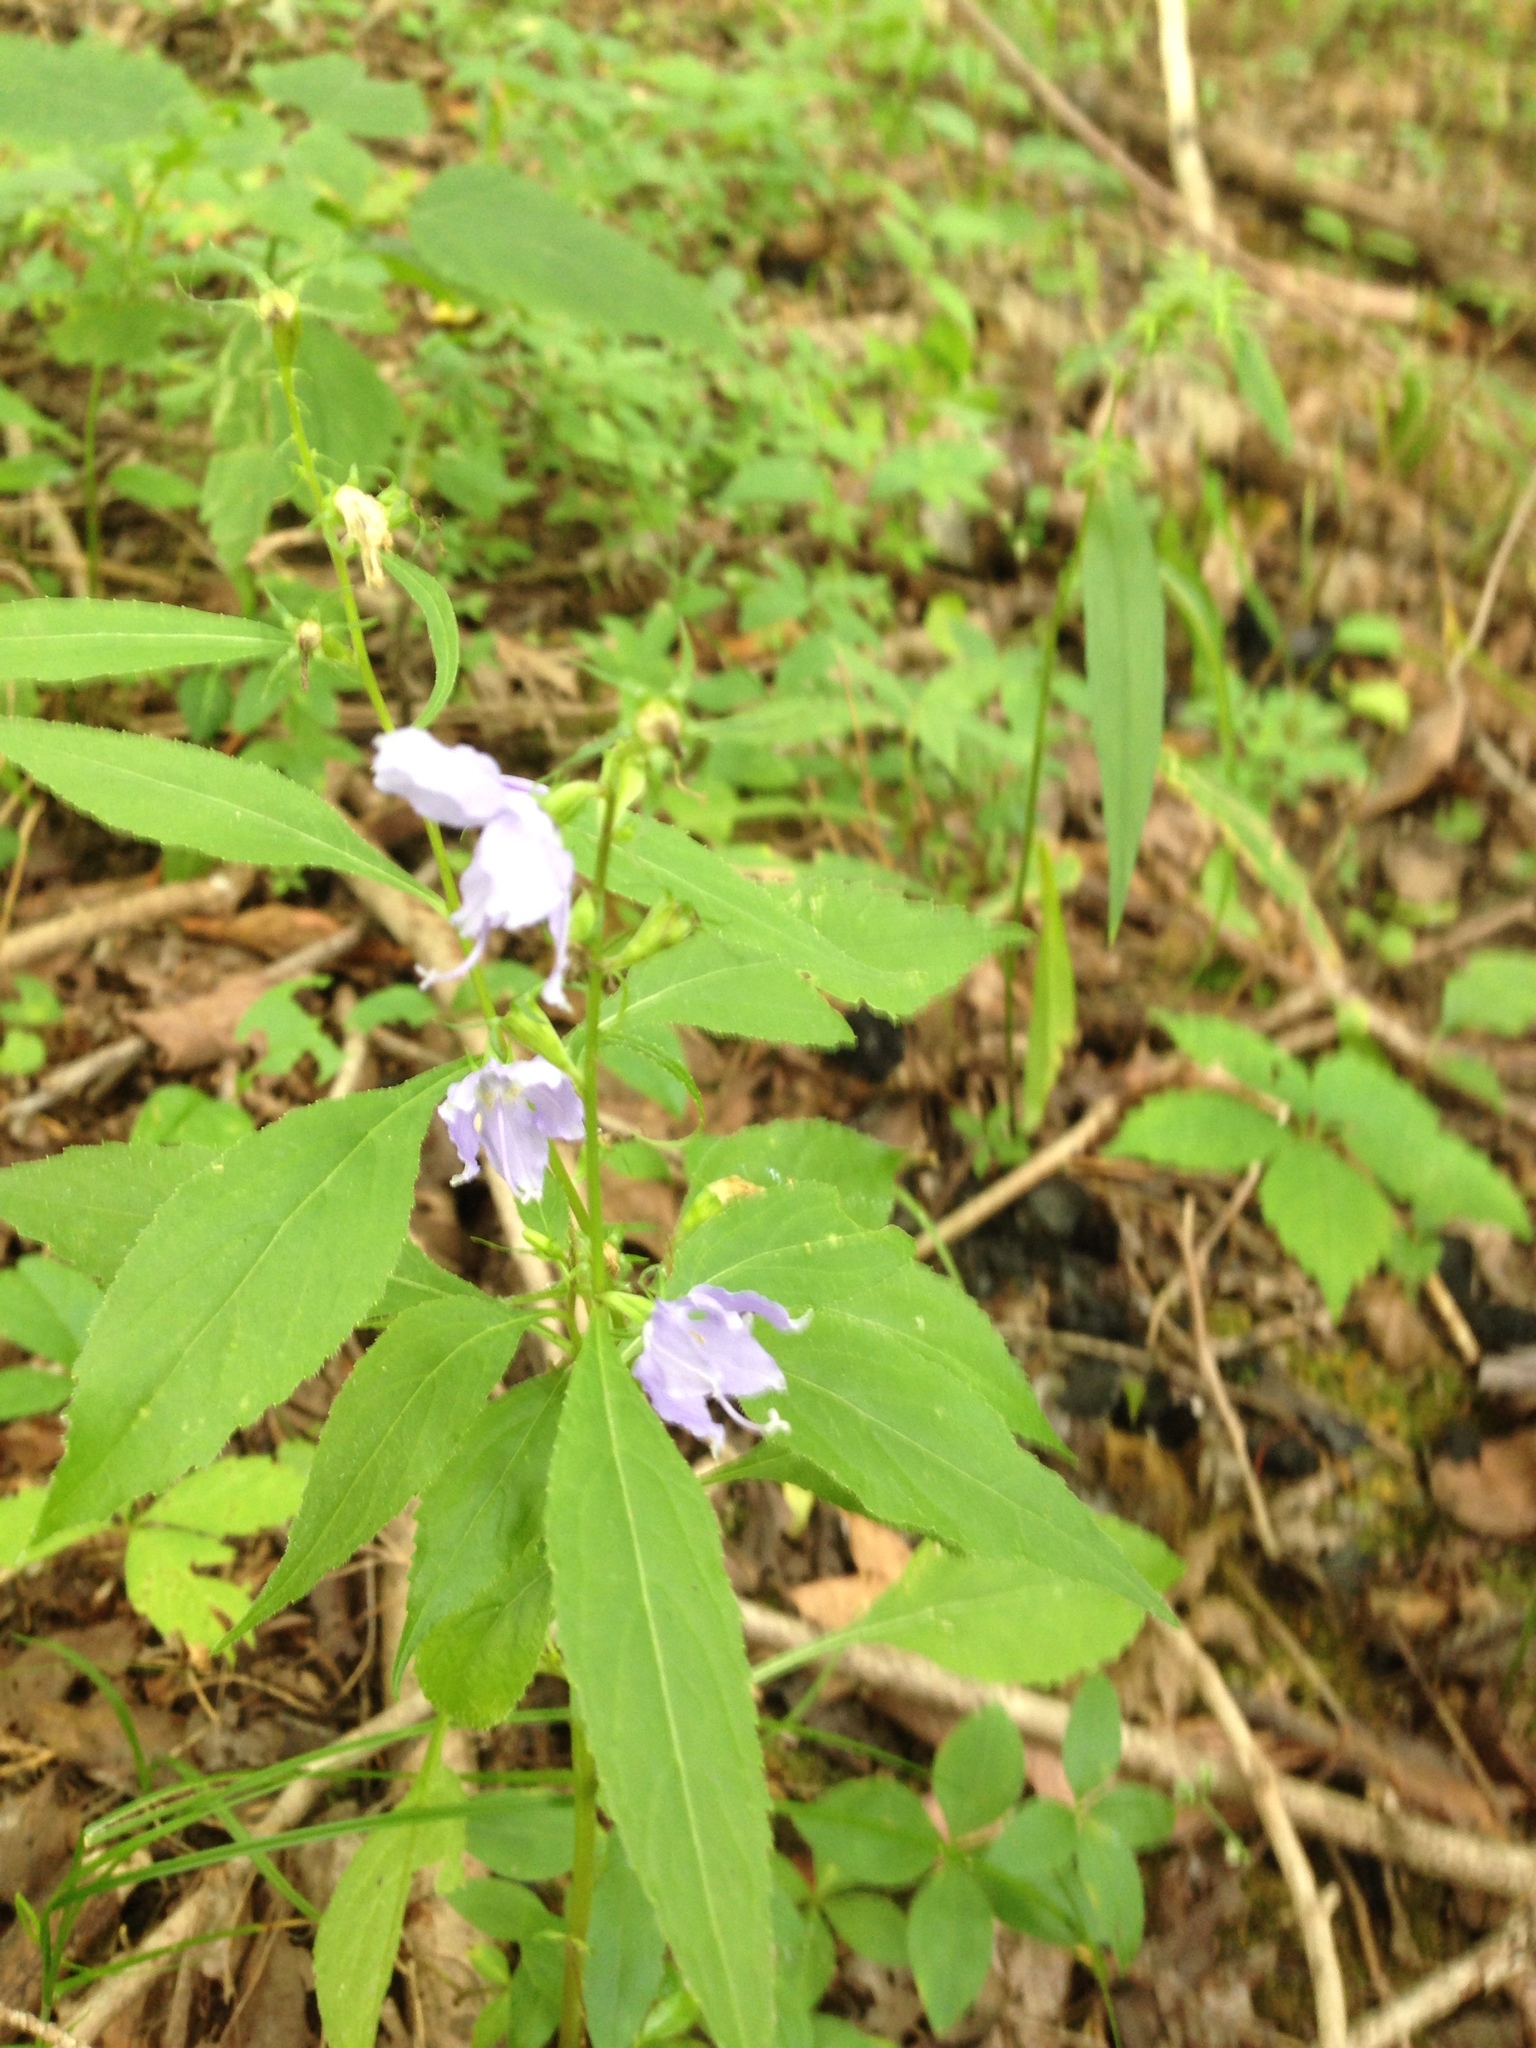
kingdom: Plantae
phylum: Tracheophyta
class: Magnoliopsida
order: Asterales
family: Campanulaceae
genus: Campanulastrum
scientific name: Campanulastrum americanum
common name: American bellflower
